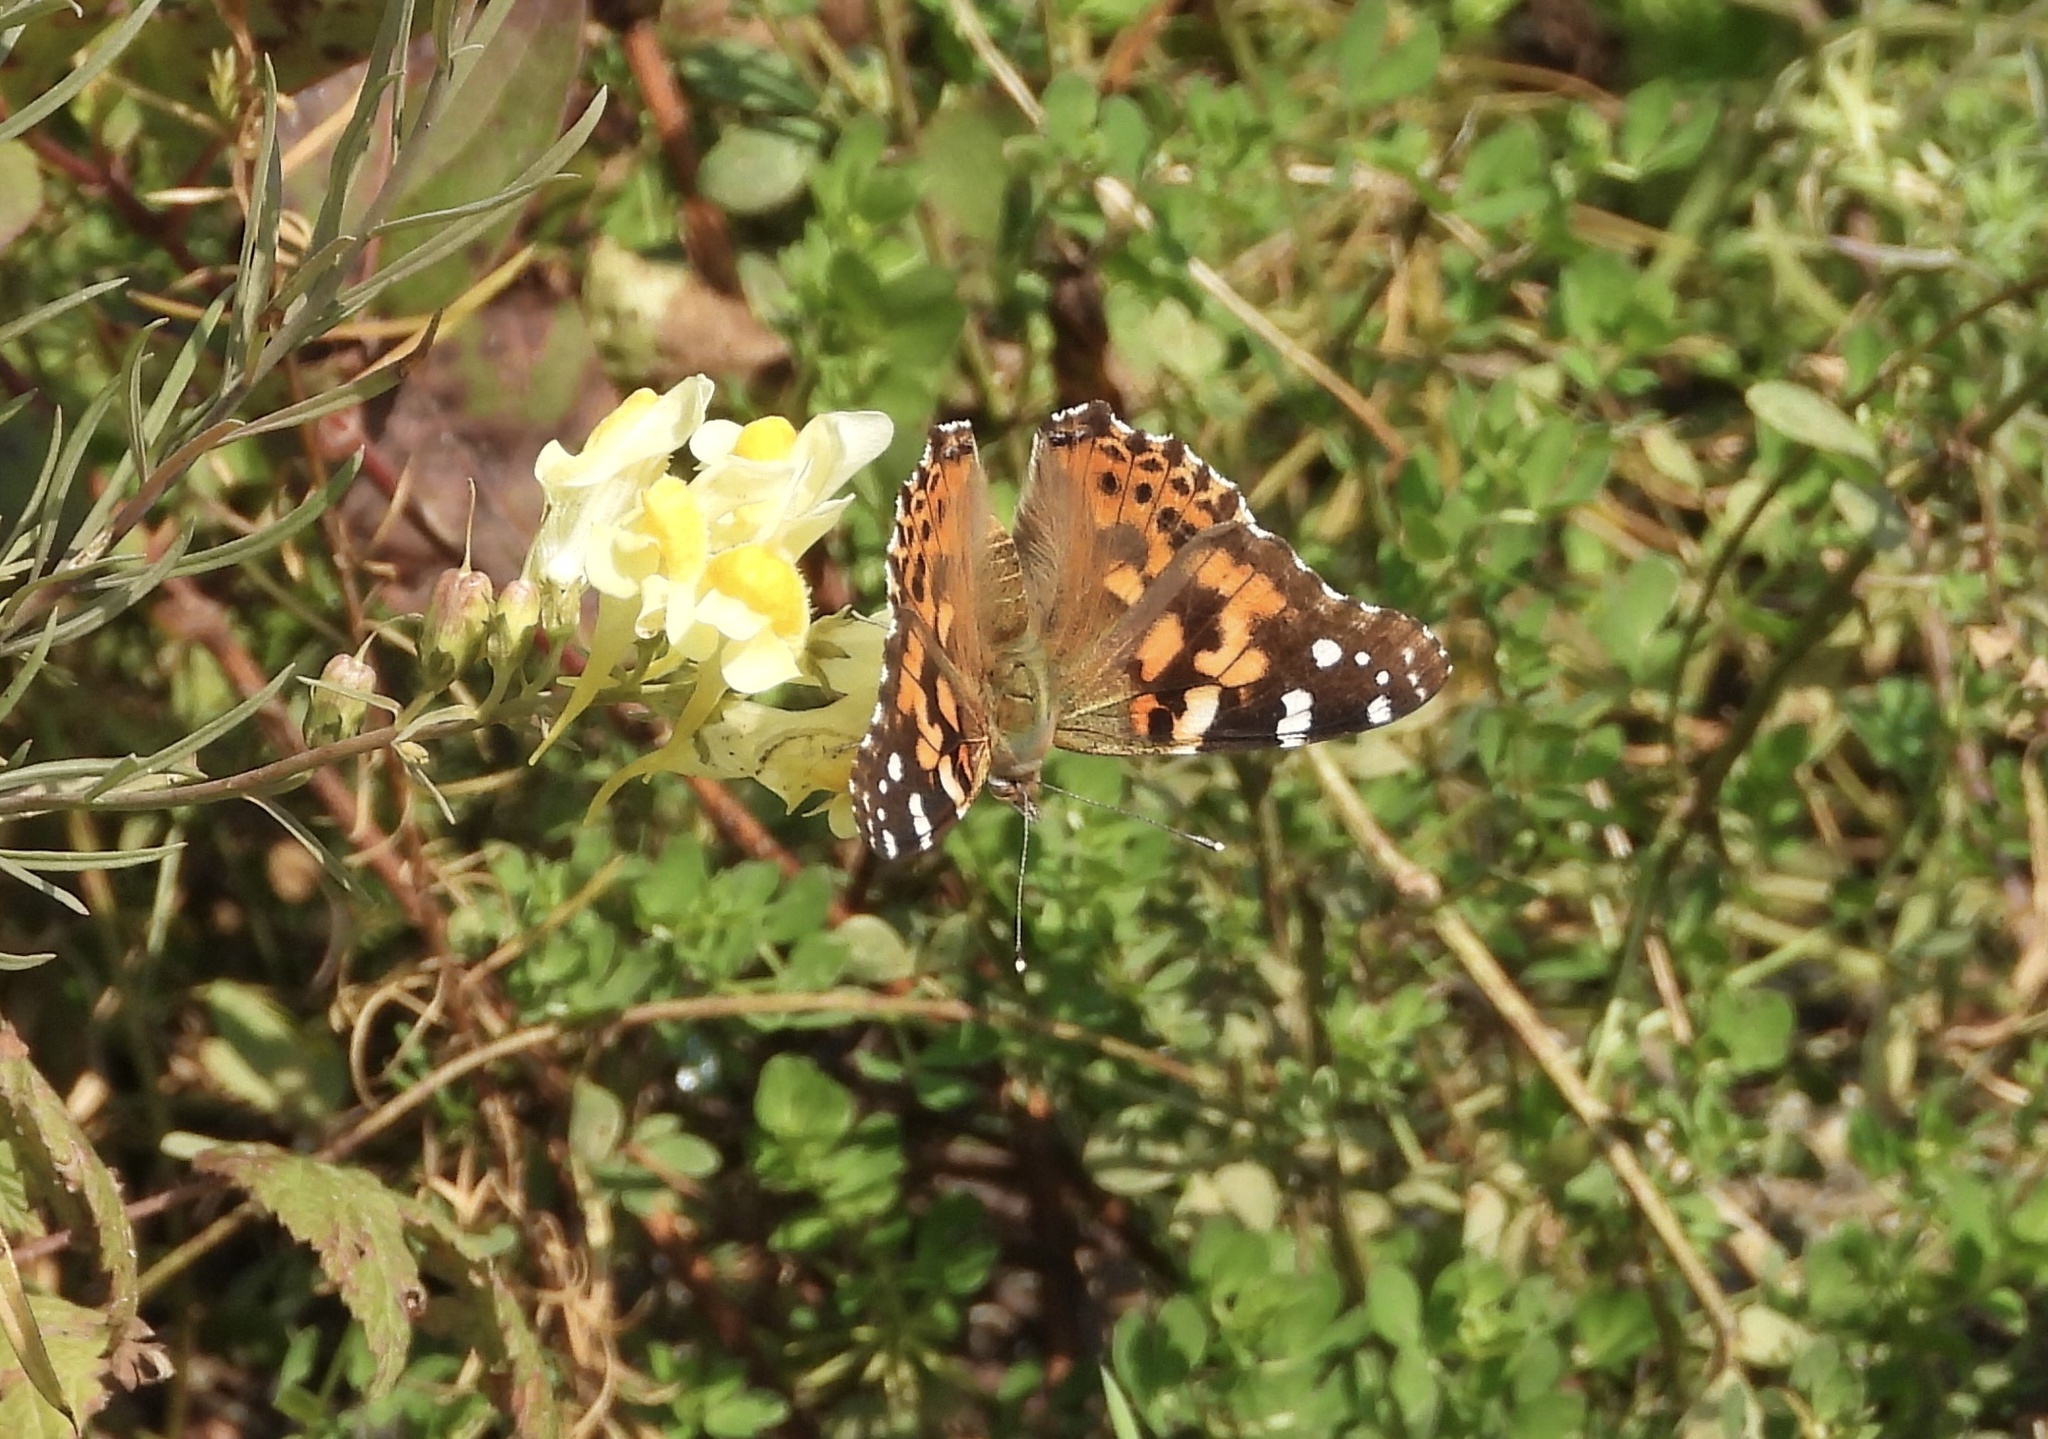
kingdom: Animalia
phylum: Arthropoda
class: Insecta
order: Lepidoptera
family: Nymphalidae
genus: Vanessa
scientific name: Vanessa cardui
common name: Painted lady
